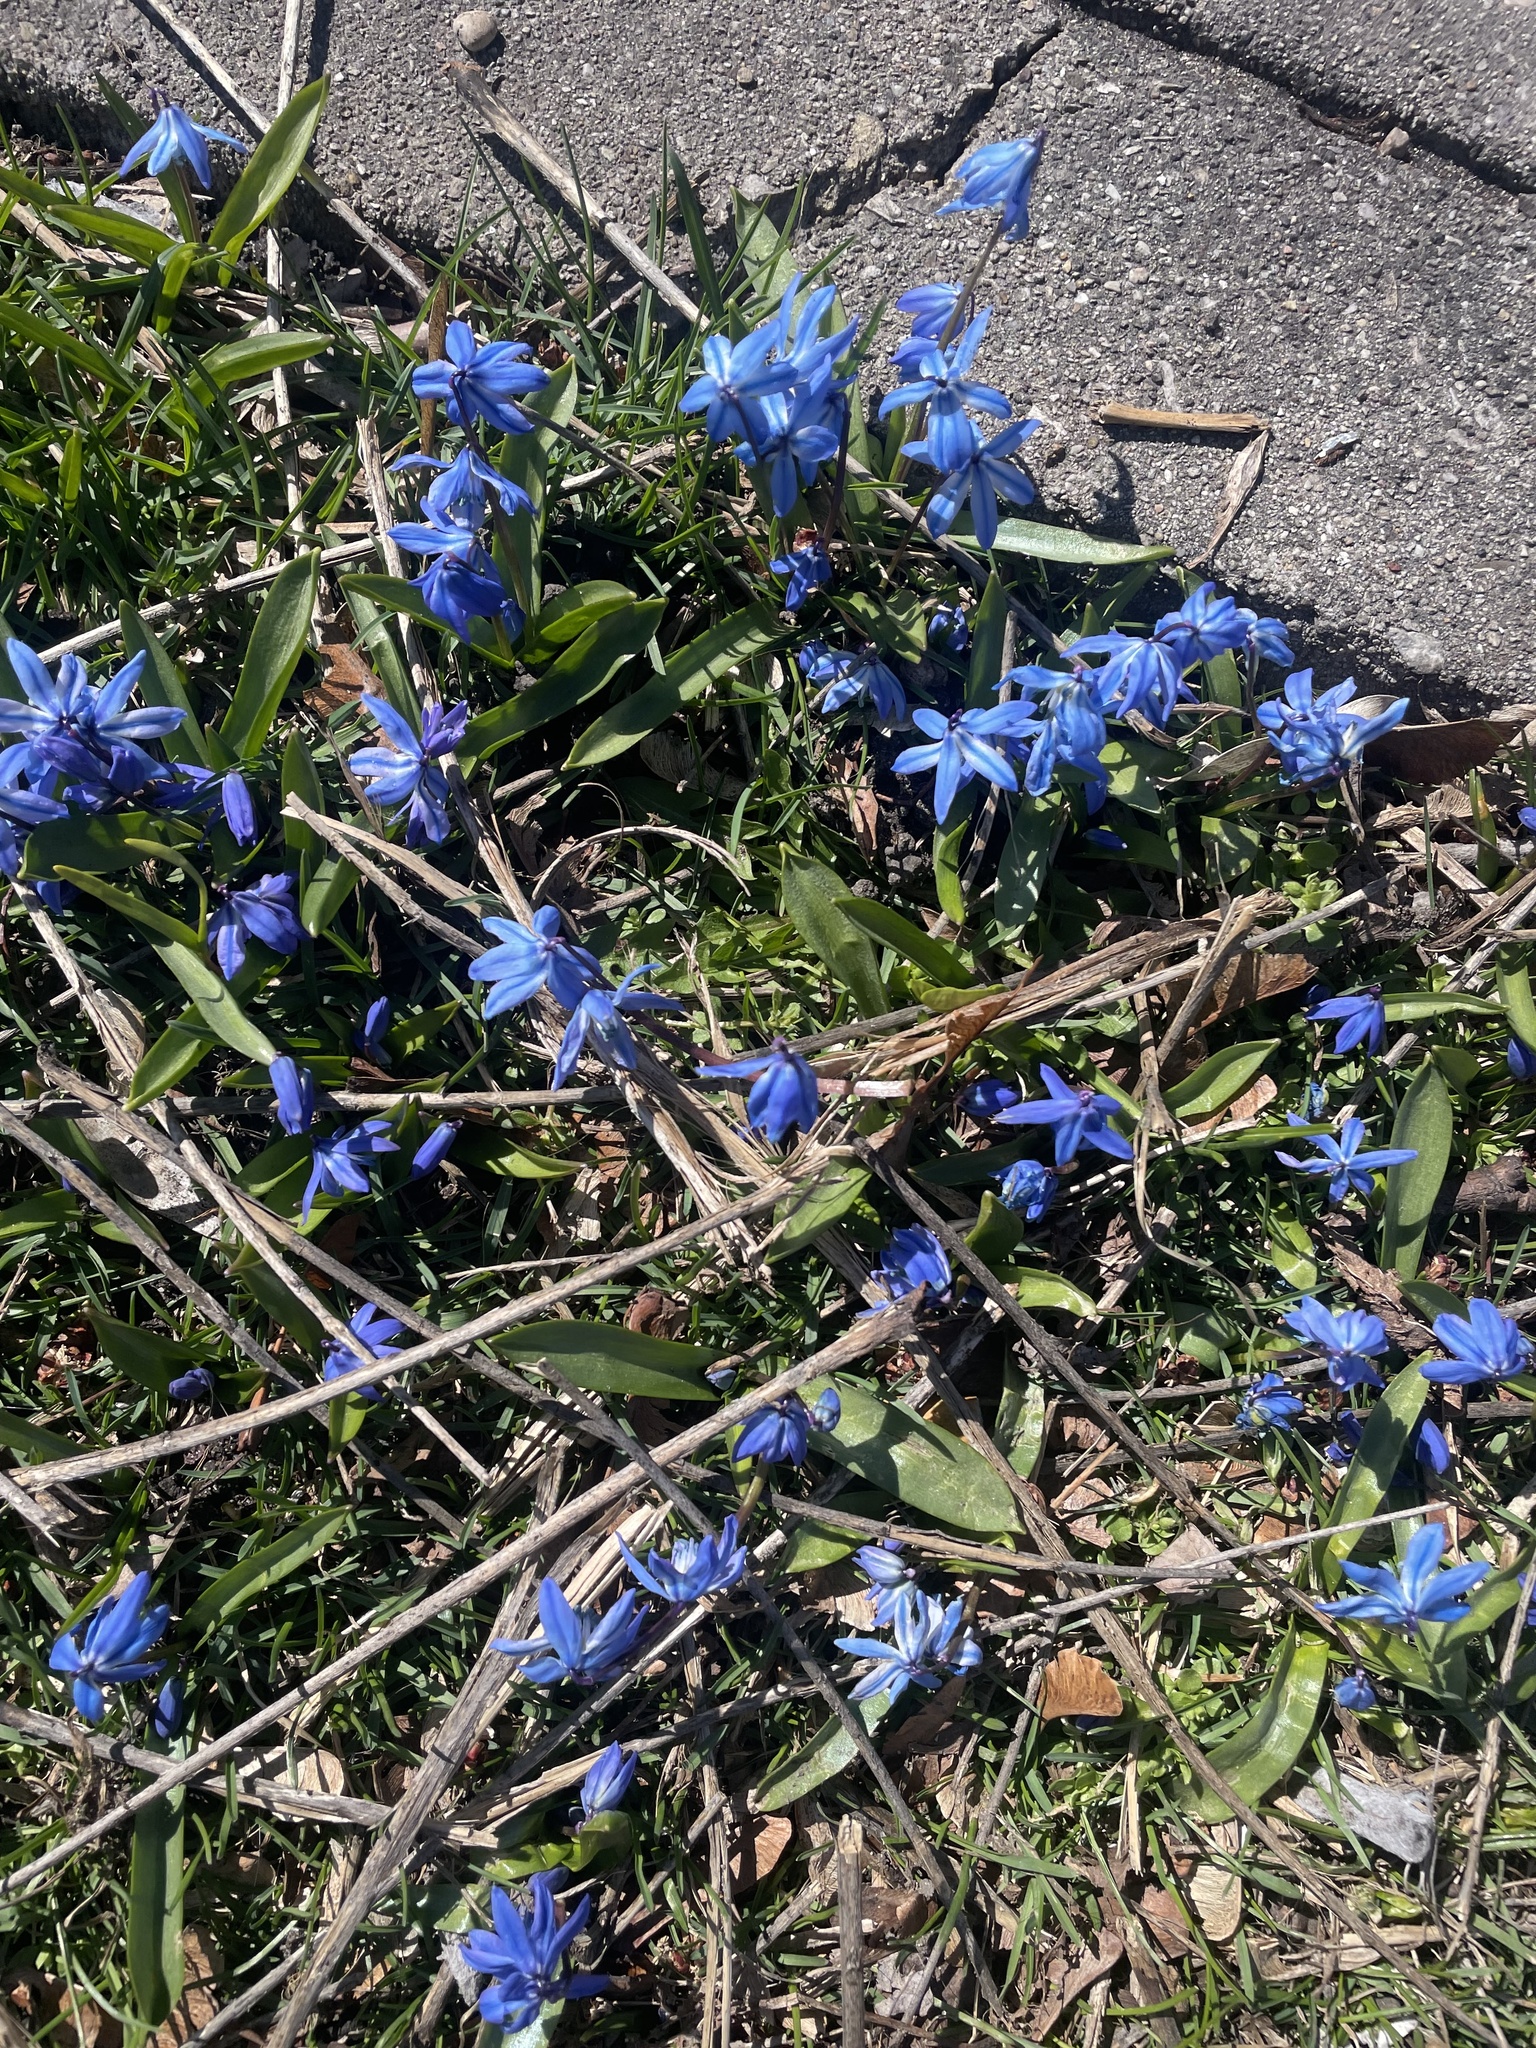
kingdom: Plantae
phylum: Tracheophyta
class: Liliopsida
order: Asparagales
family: Asparagaceae
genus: Scilla
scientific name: Scilla siberica
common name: Siberian squill
